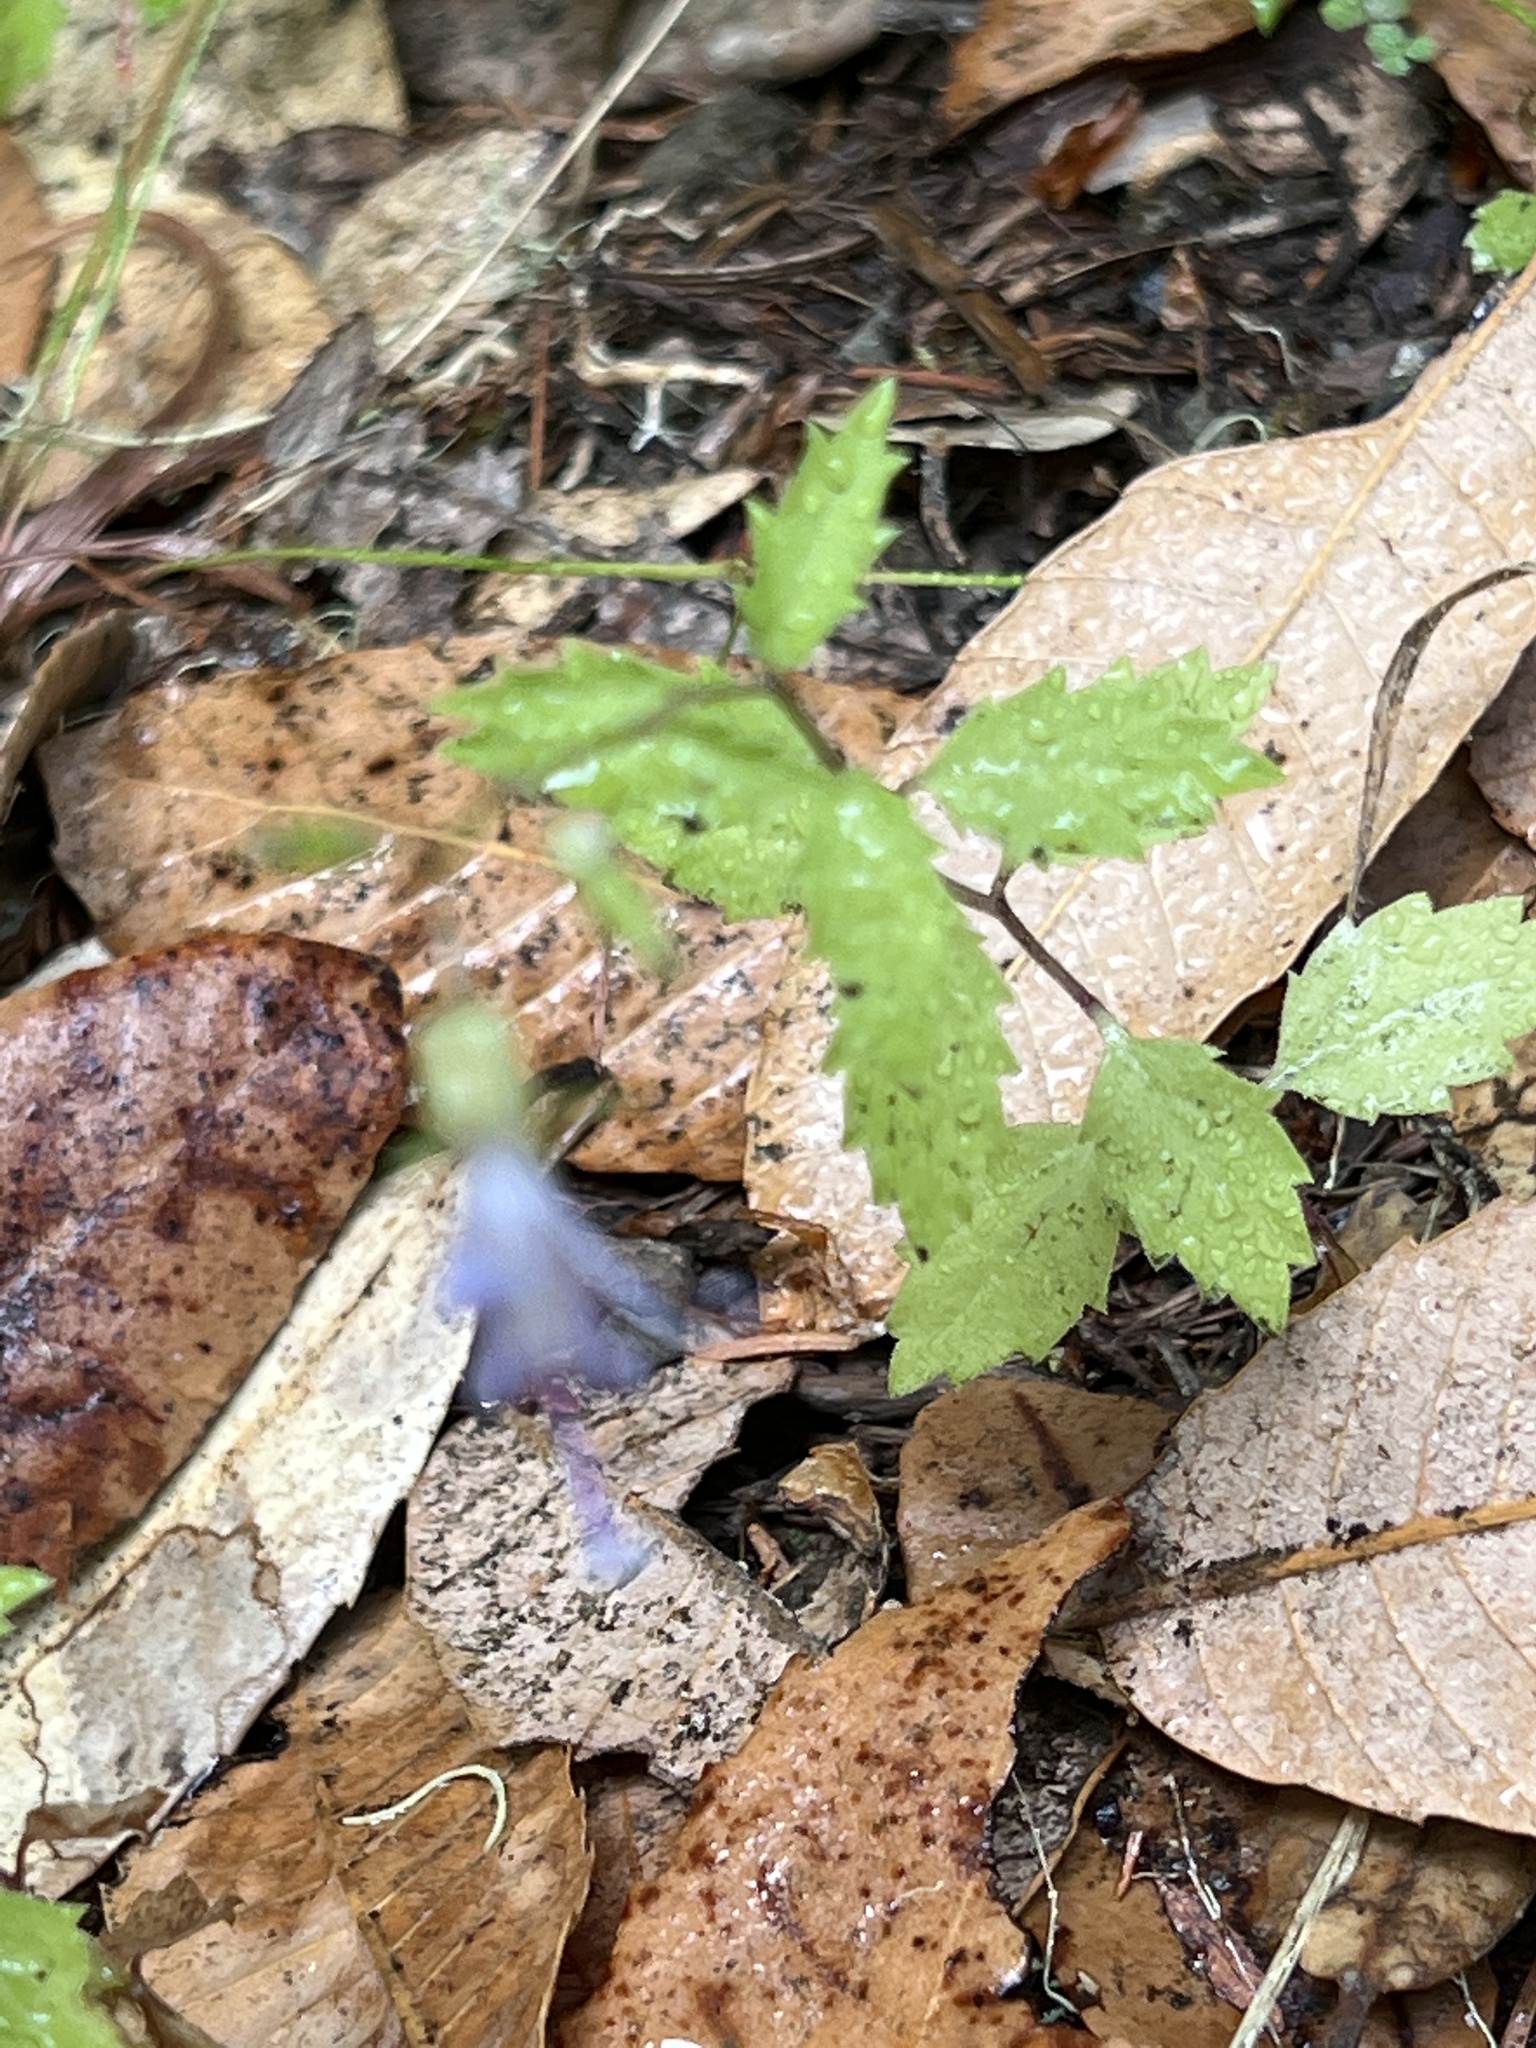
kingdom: Plantae
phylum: Tracheophyta
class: Magnoliopsida
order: Asterales
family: Campanulaceae
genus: Smithiastrum
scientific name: Smithiastrum prenanthoides
